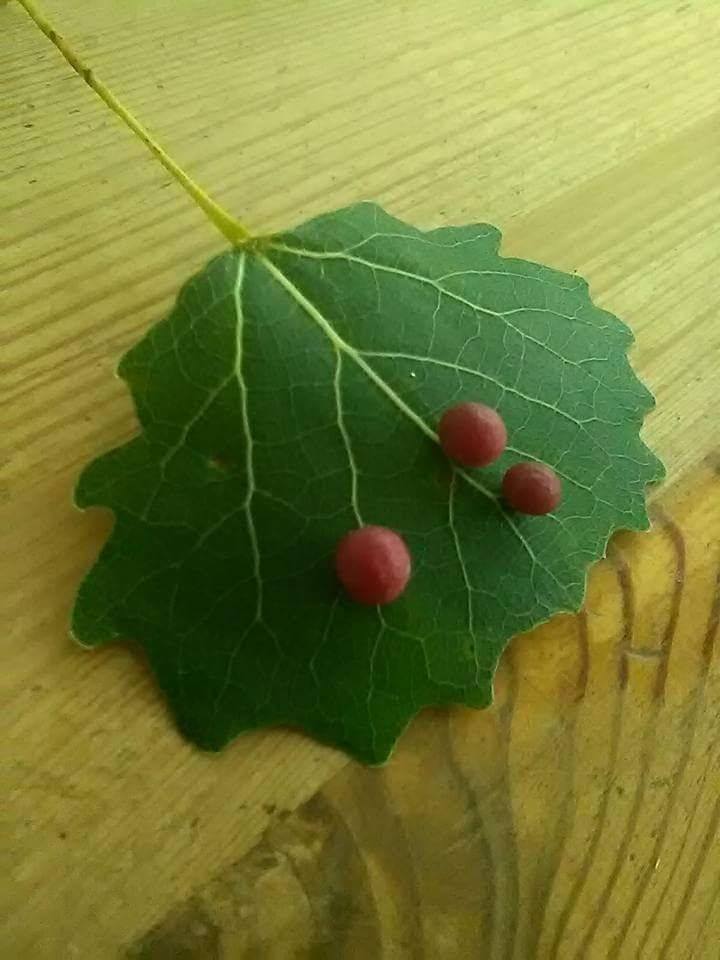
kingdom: Animalia
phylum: Arthropoda
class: Insecta
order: Diptera
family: Cecidomyiidae
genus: Harmandiola
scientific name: Harmandiola tremulae
